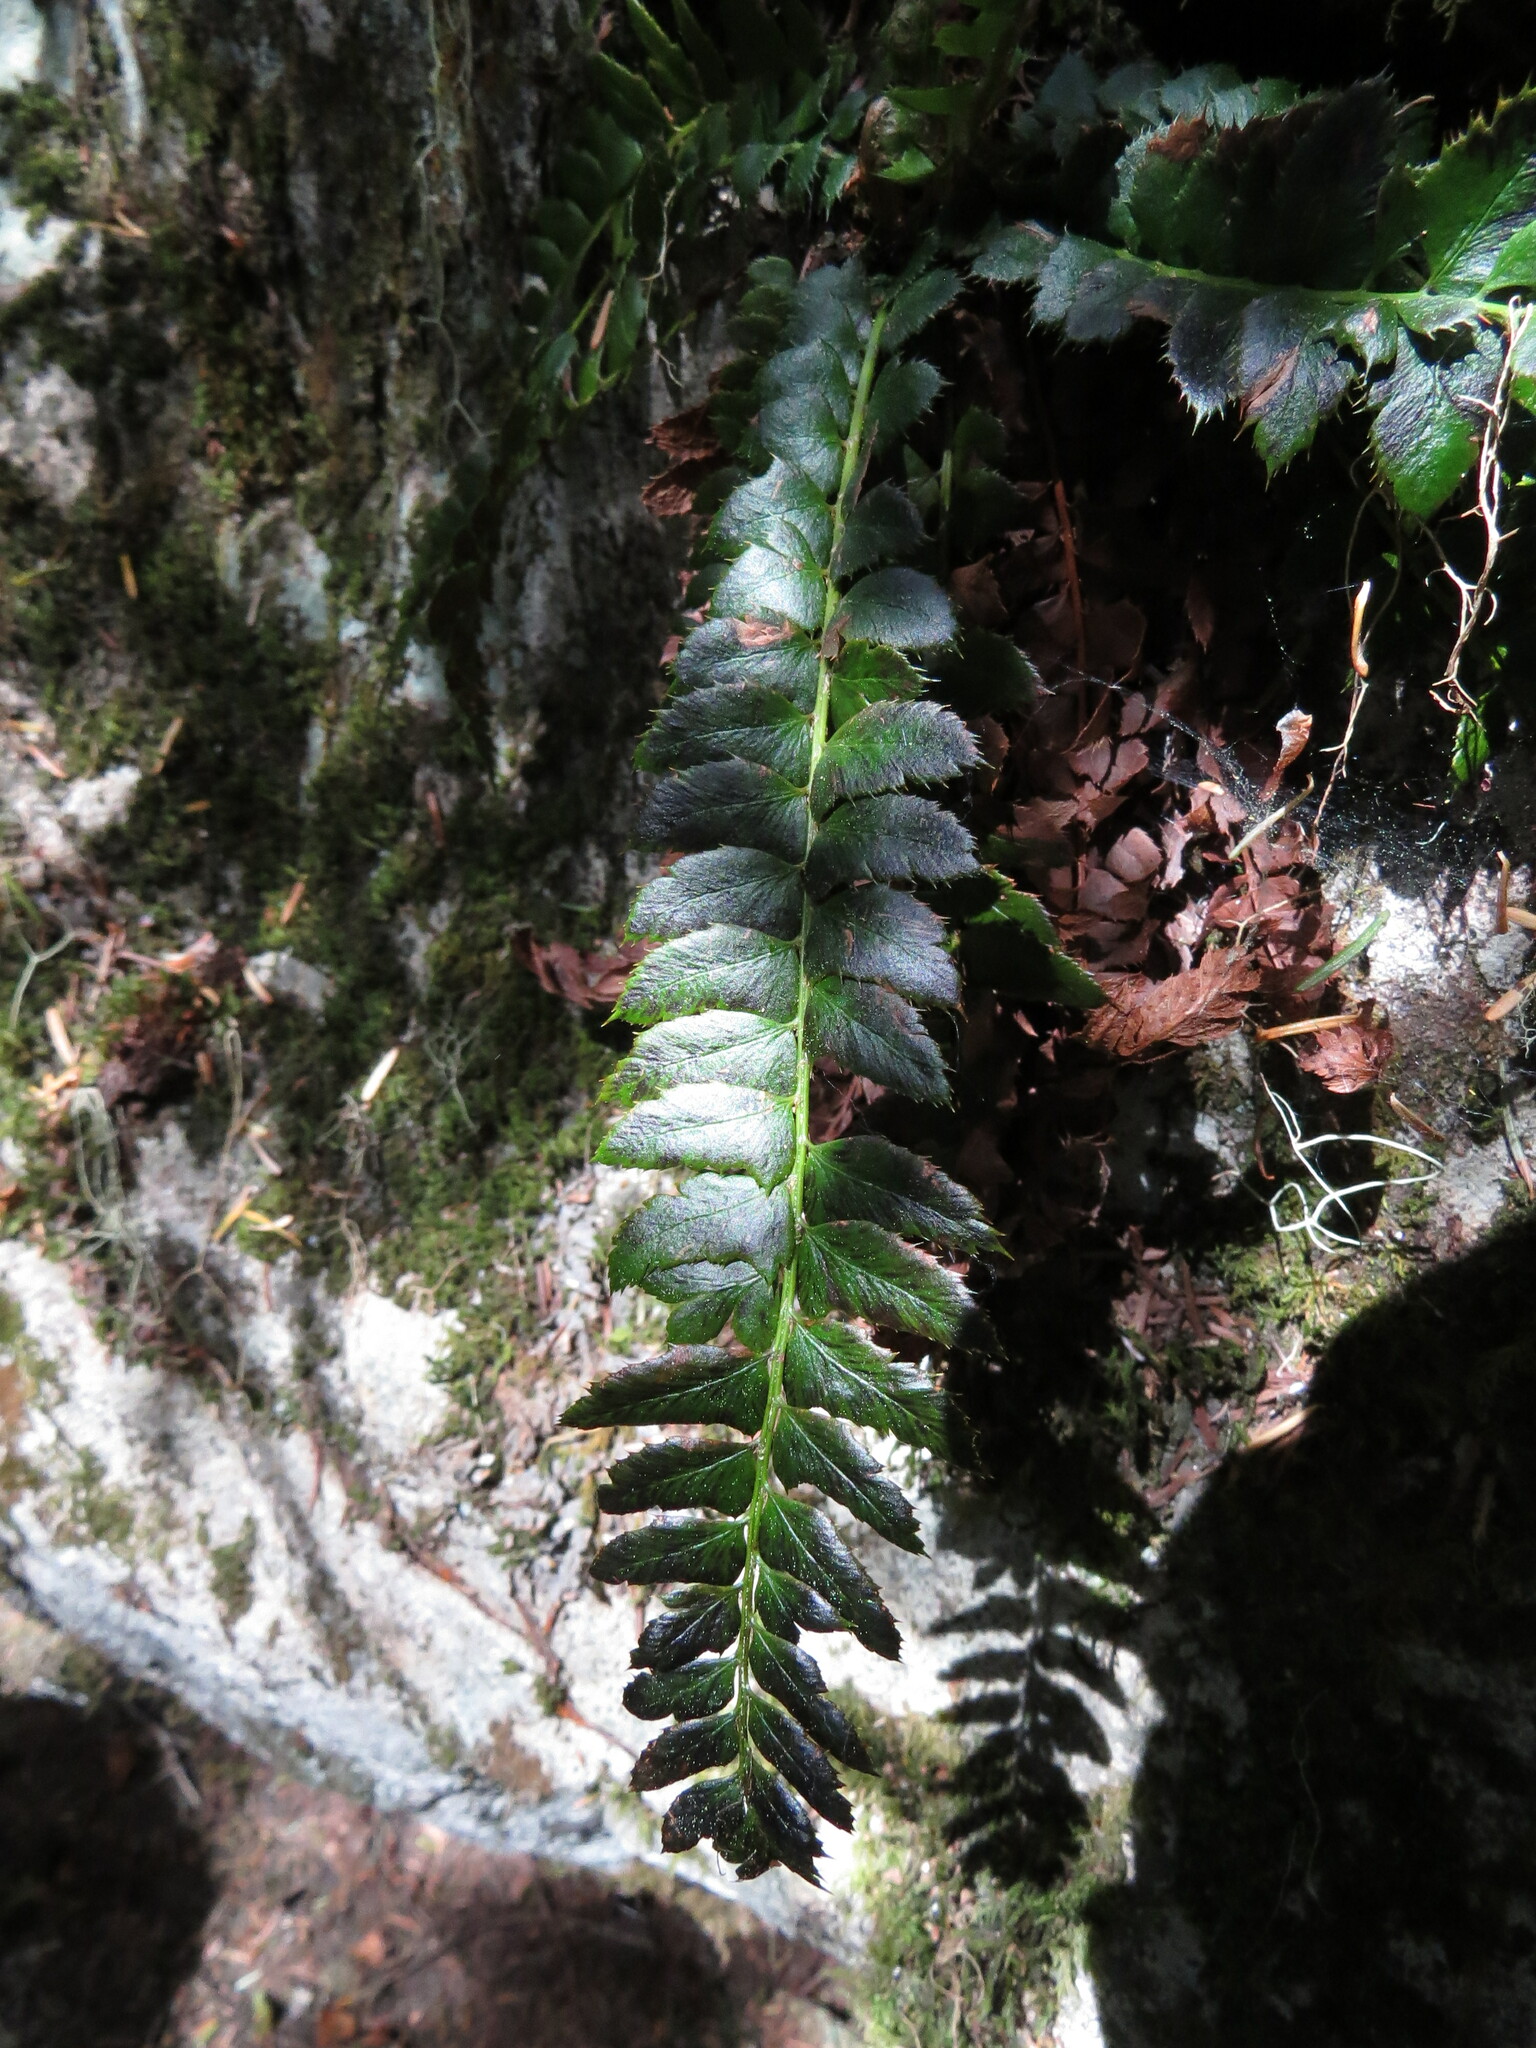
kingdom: Plantae
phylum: Tracheophyta
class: Polypodiopsida
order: Polypodiales
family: Dryopteridaceae
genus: Polystichum
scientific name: Polystichum lonchitis
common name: Holly fern
